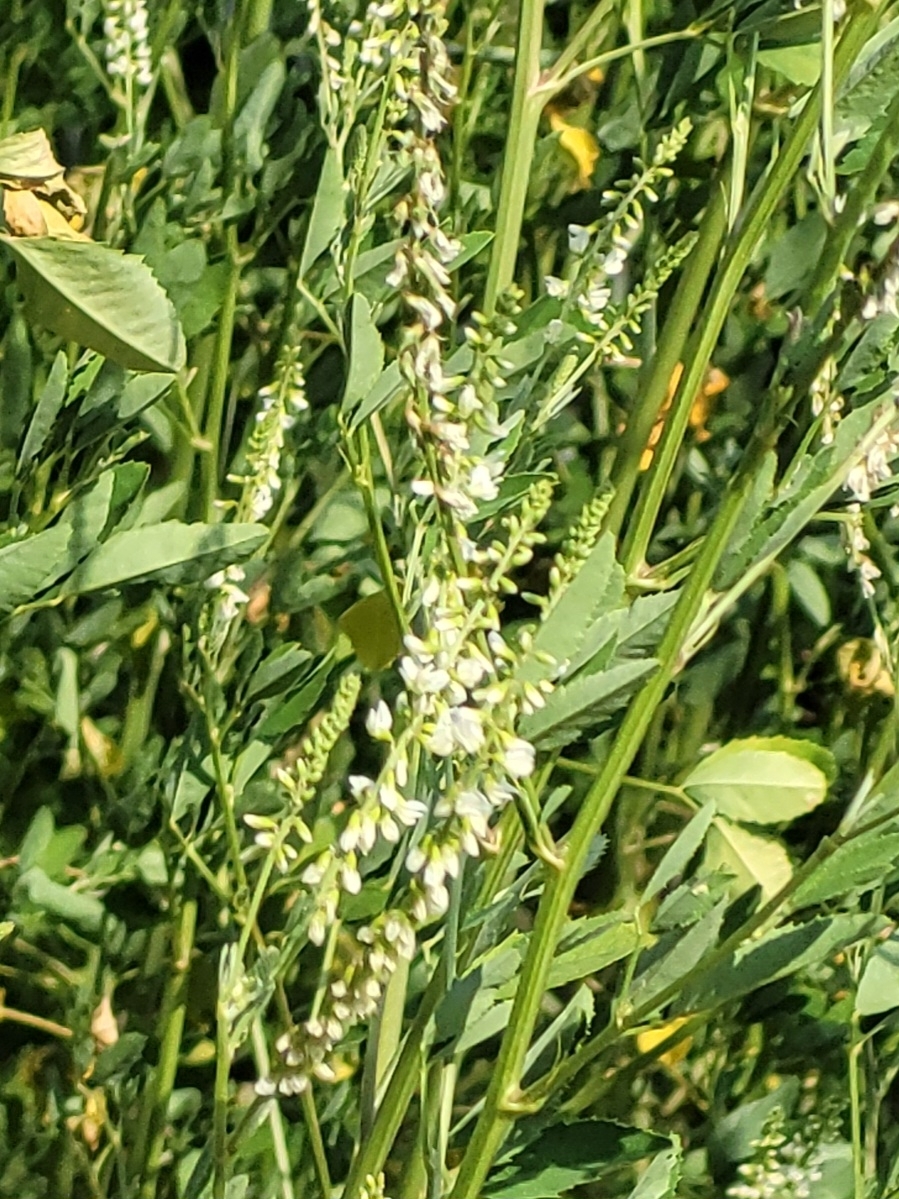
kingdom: Plantae
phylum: Tracheophyta
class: Magnoliopsida
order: Fabales
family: Fabaceae
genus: Melilotus
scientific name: Melilotus albus
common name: White melilot
